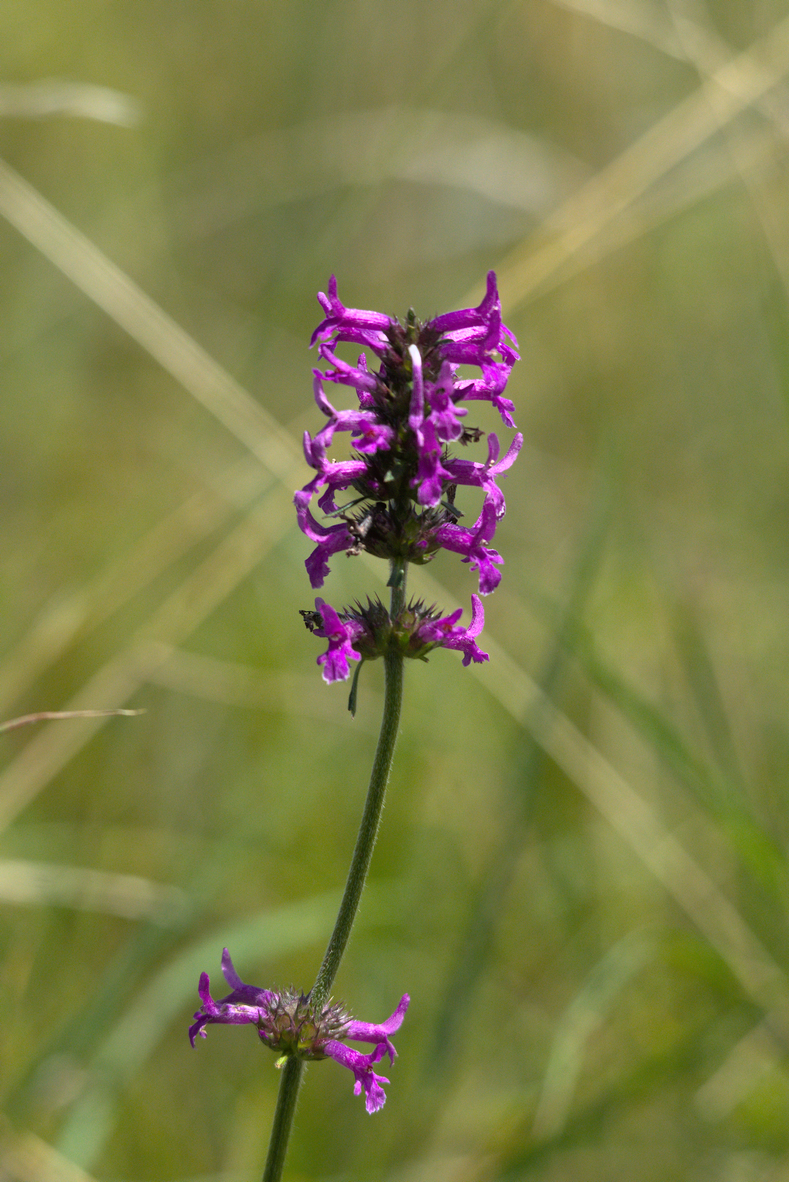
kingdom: Plantae
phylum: Tracheophyta
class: Magnoliopsida
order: Lamiales
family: Lamiaceae
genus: Betonica
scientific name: Betonica officinalis
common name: Bishop's-wort
